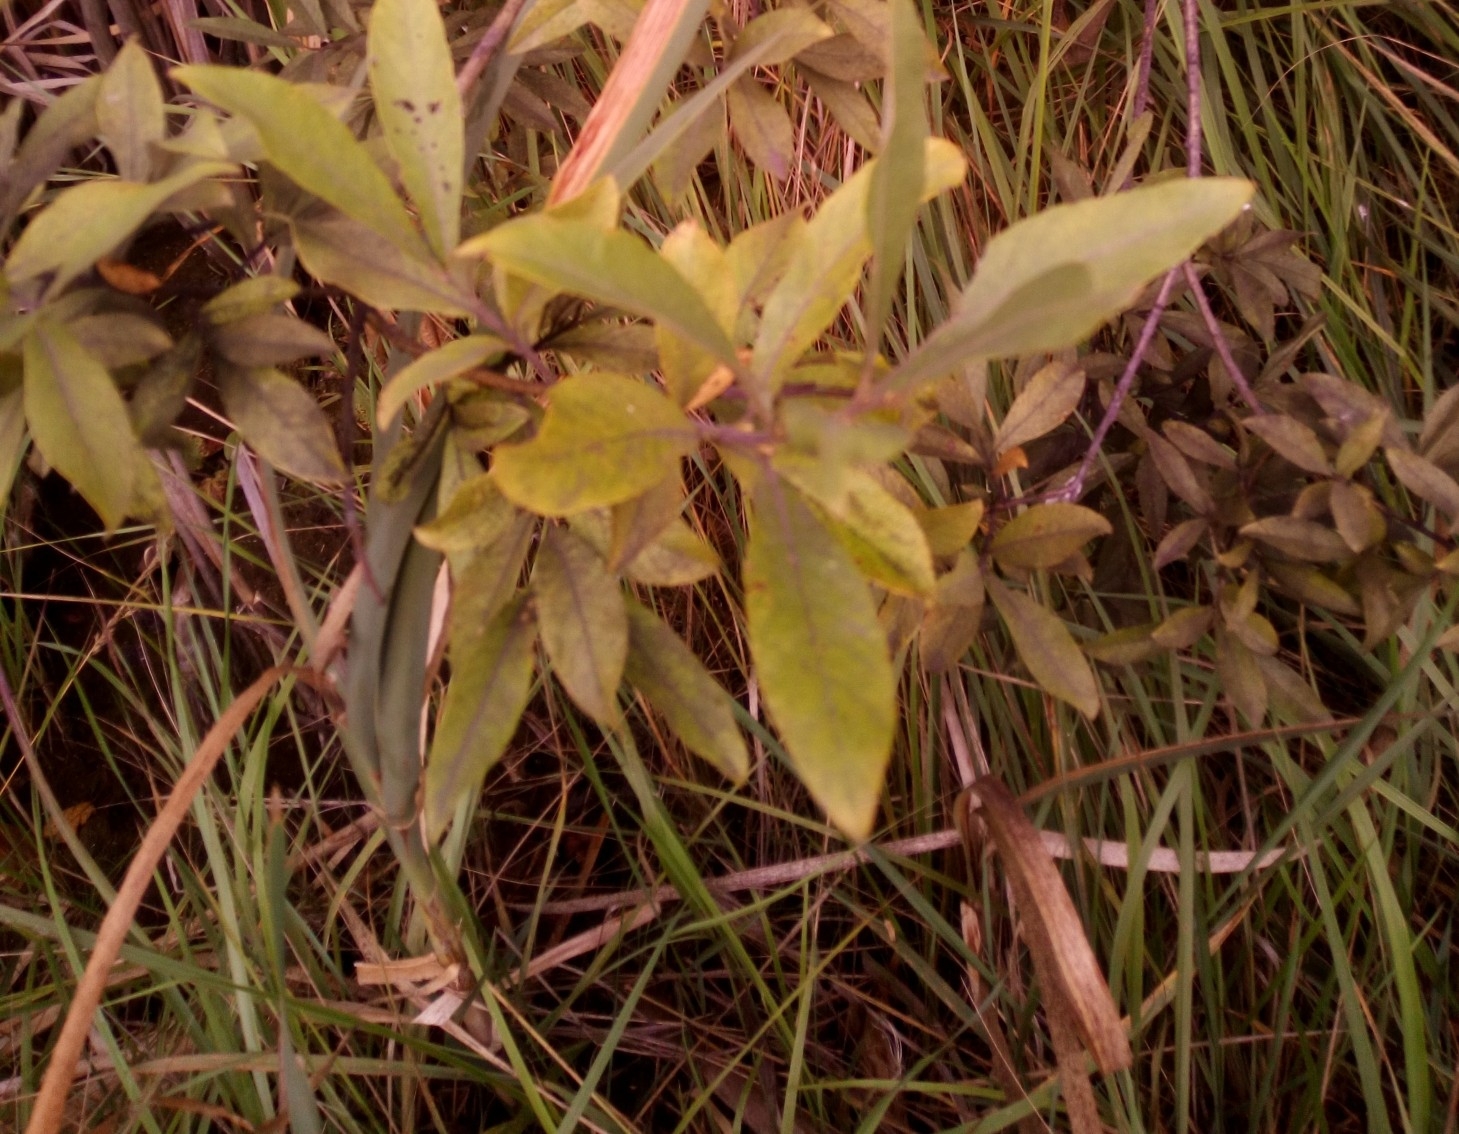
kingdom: Plantae
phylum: Tracheophyta
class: Magnoliopsida
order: Malpighiales
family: Salicaceae
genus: Salix
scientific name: Salix cinerea
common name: Common sallow
